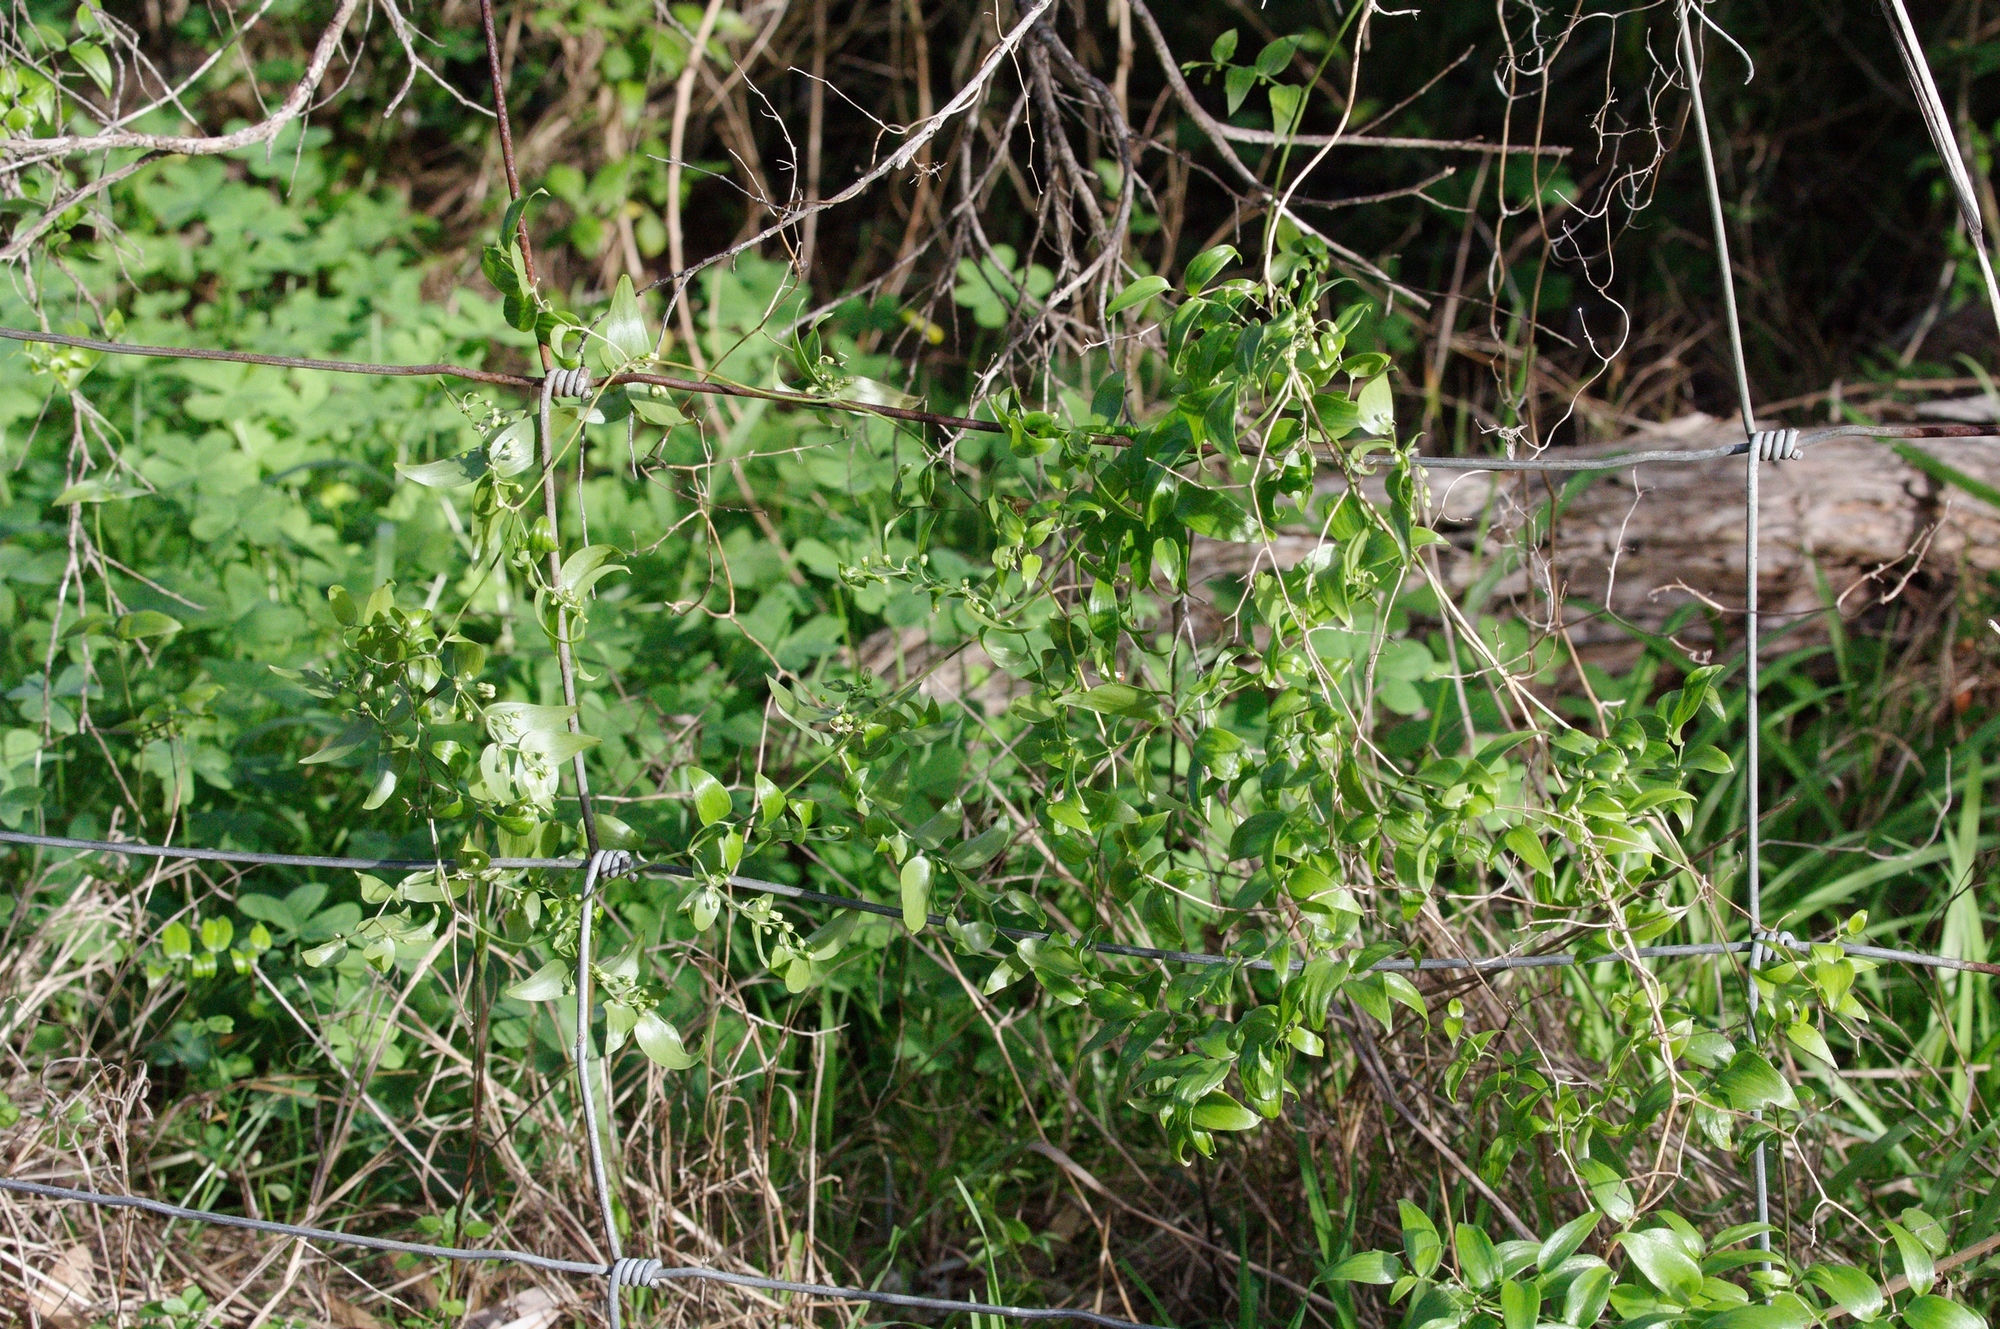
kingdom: Plantae
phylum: Tracheophyta
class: Liliopsida
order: Asparagales
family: Asparagaceae
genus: Asparagus
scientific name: Asparagus asparagoides
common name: African asparagus fern
